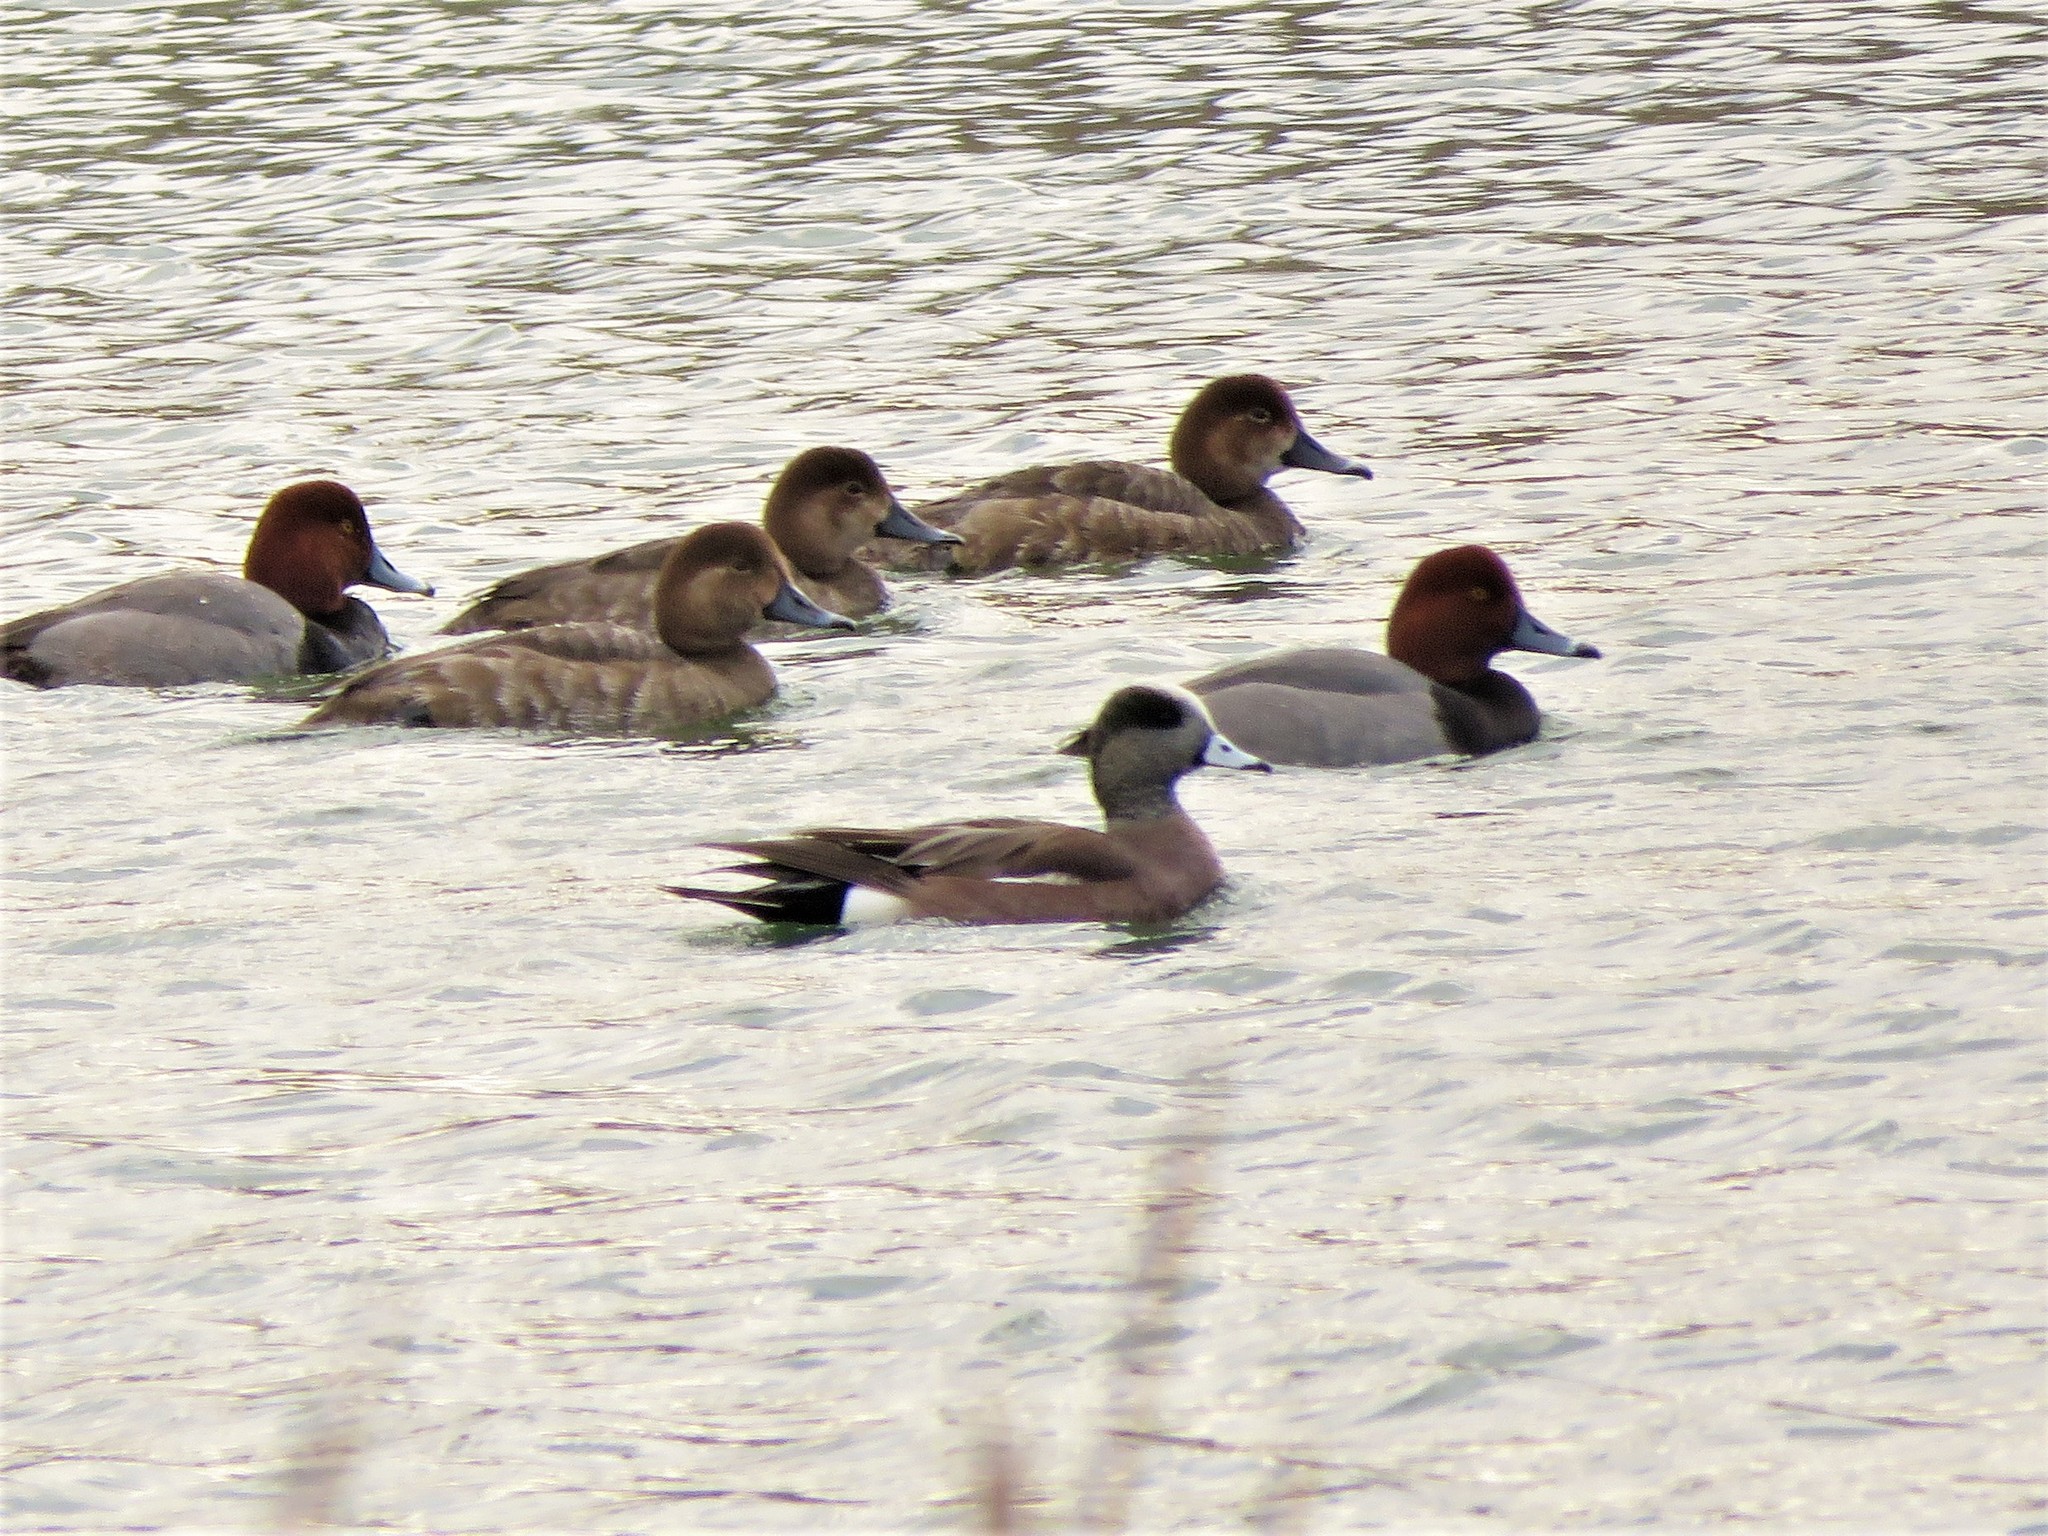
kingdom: Animalia
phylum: Chordata
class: Aves
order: Anseriformes
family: Anatidae
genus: Mareca
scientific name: Mareca americana
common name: American wigeon
